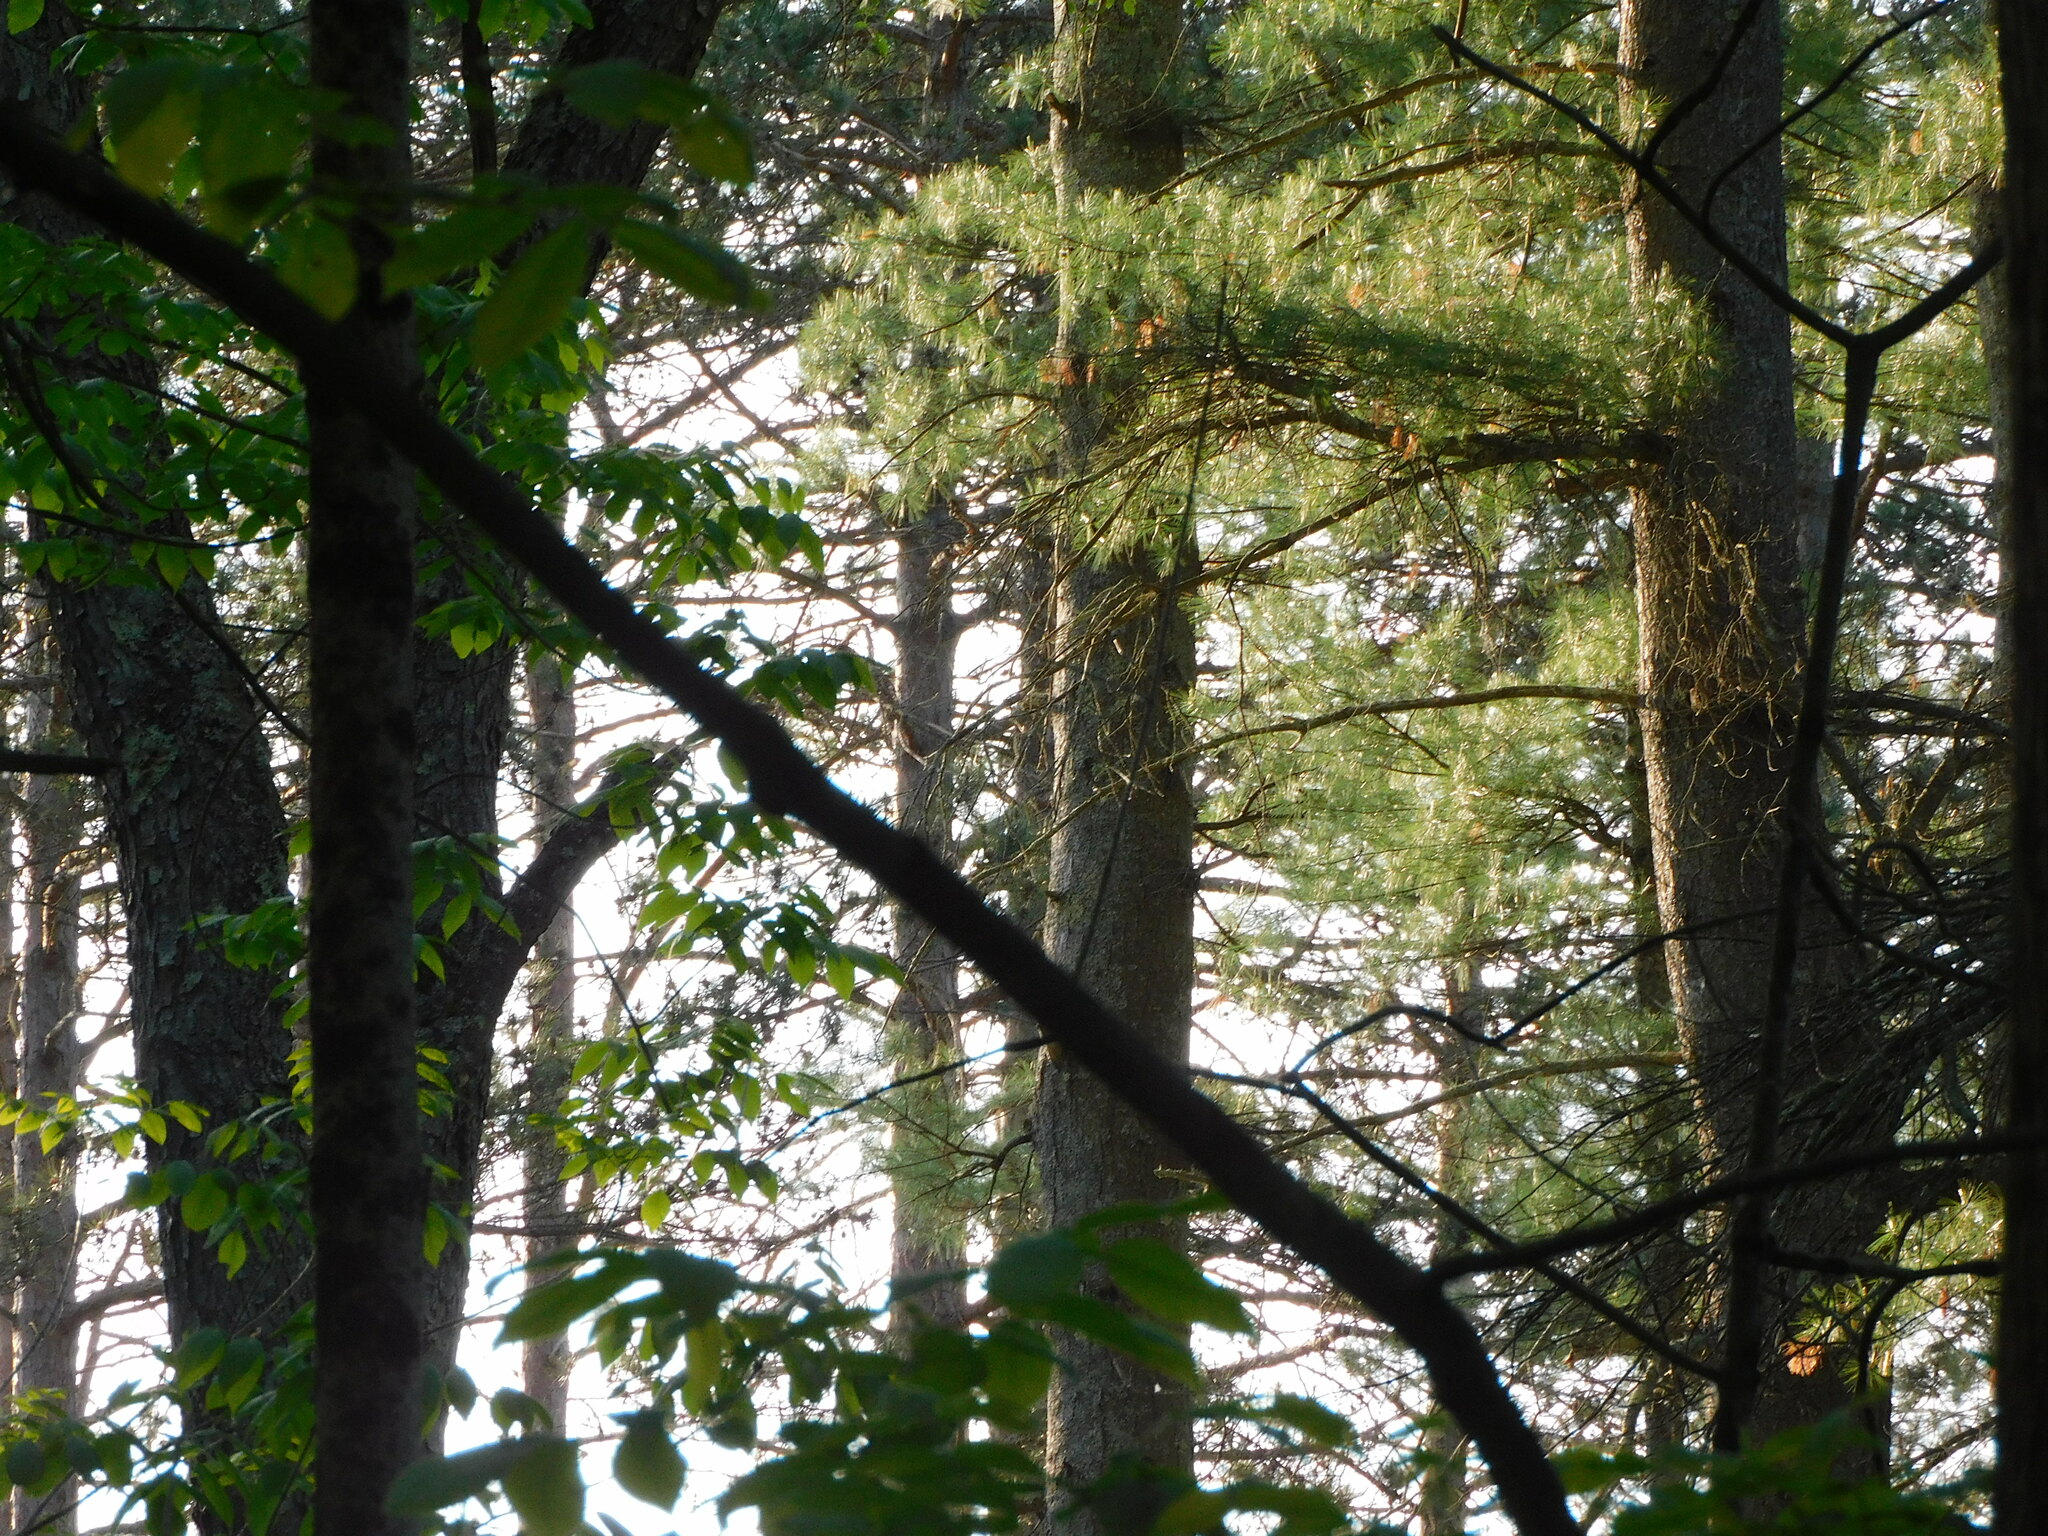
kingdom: Plantae
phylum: Tracheophyta
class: Pinopsida
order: Pinales
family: Pinaceae
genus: Pinus
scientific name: Pinus strobus
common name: Weymouth pine
